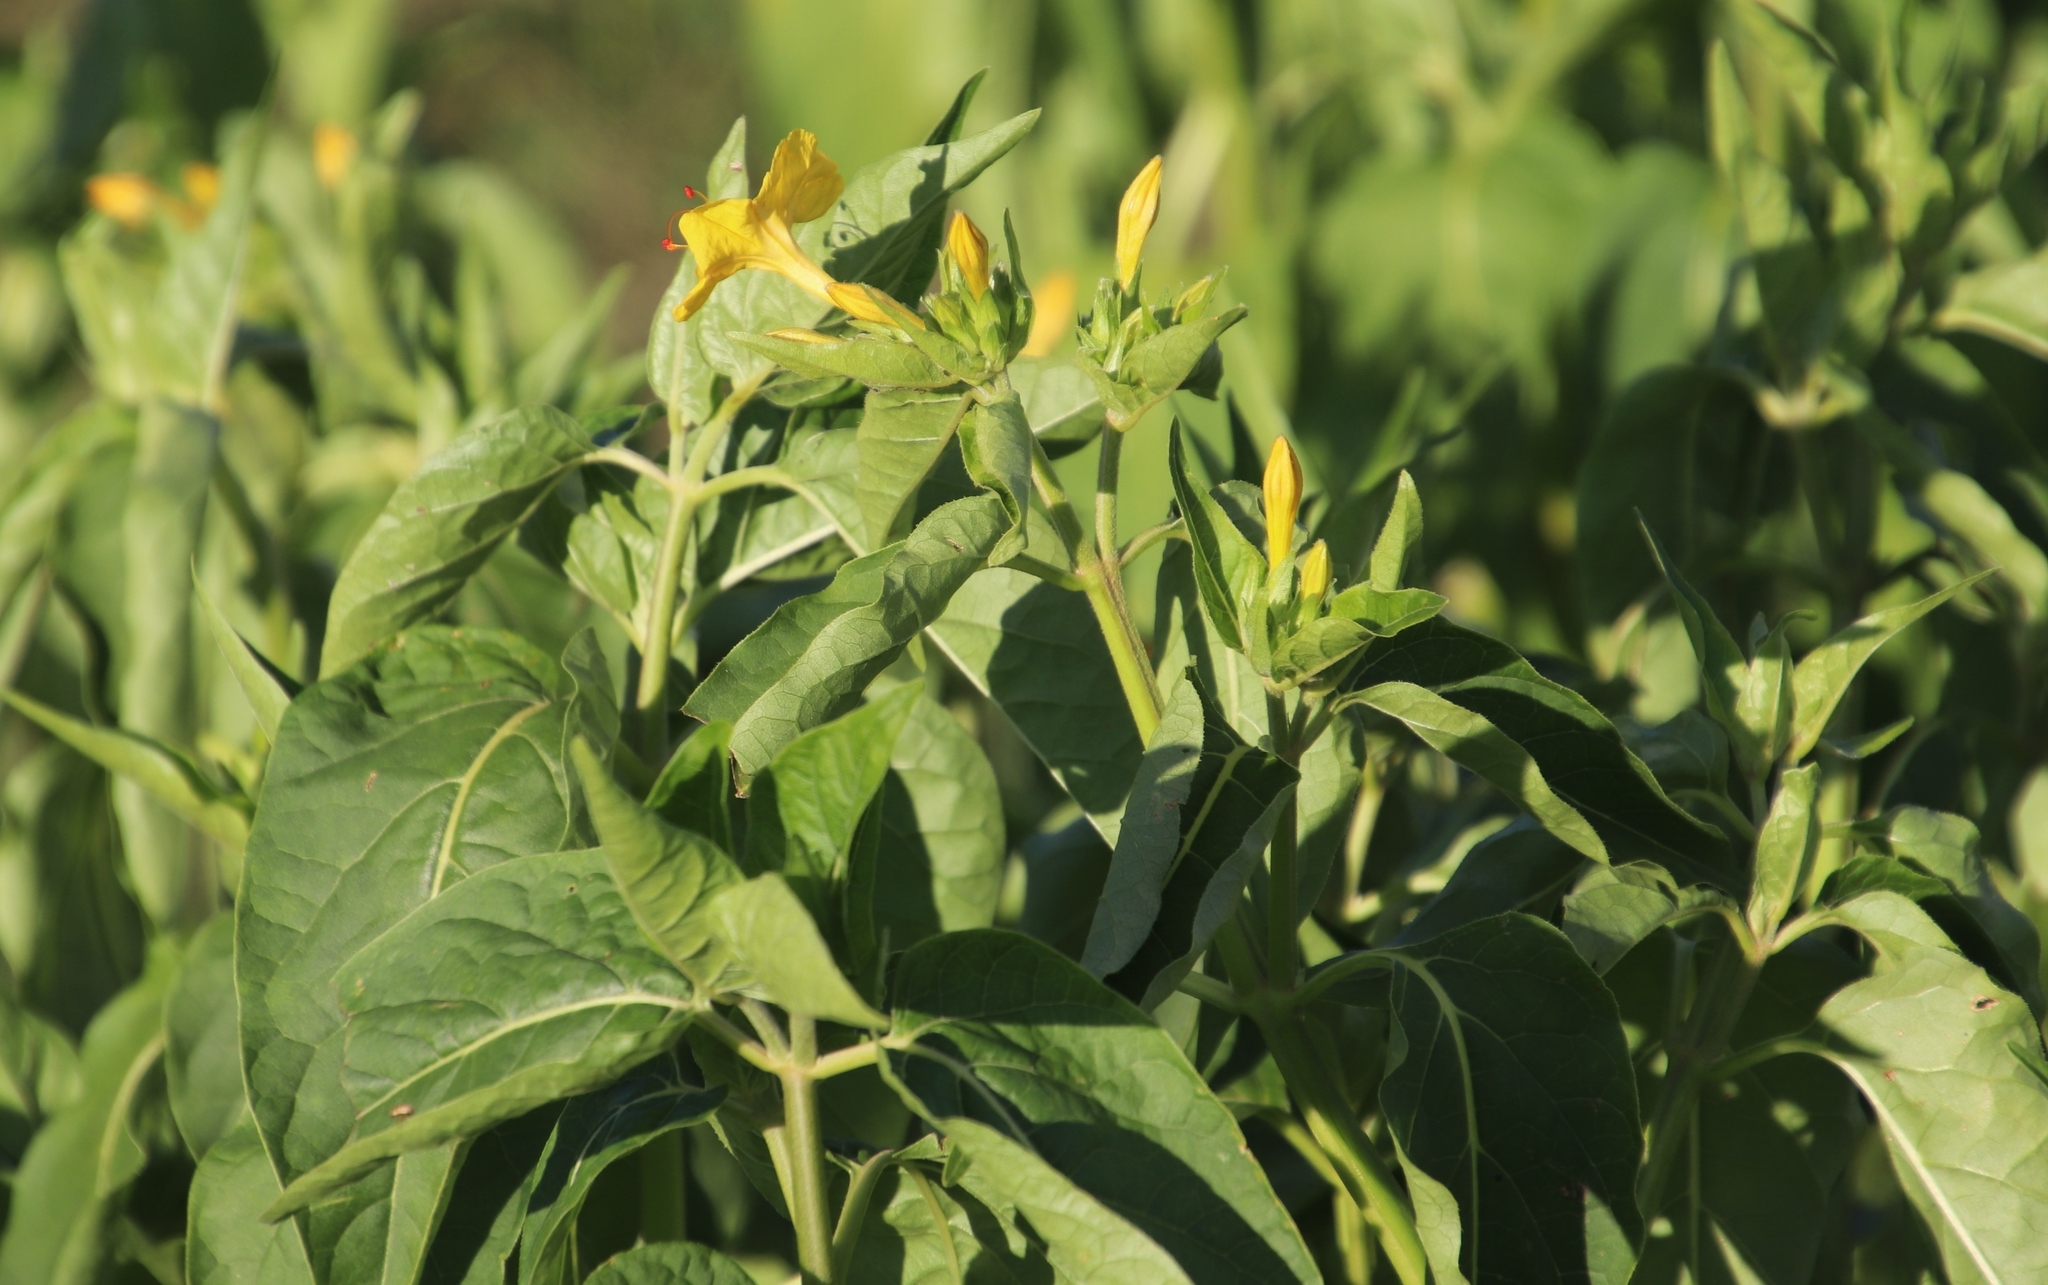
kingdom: Plantae
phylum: Tracheophyta
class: Magnoliopsida
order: Caryophyllales
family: Nyctaginaceae
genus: Mirabilis
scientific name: Mirabilis jalapa
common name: Marvel-of-peru
